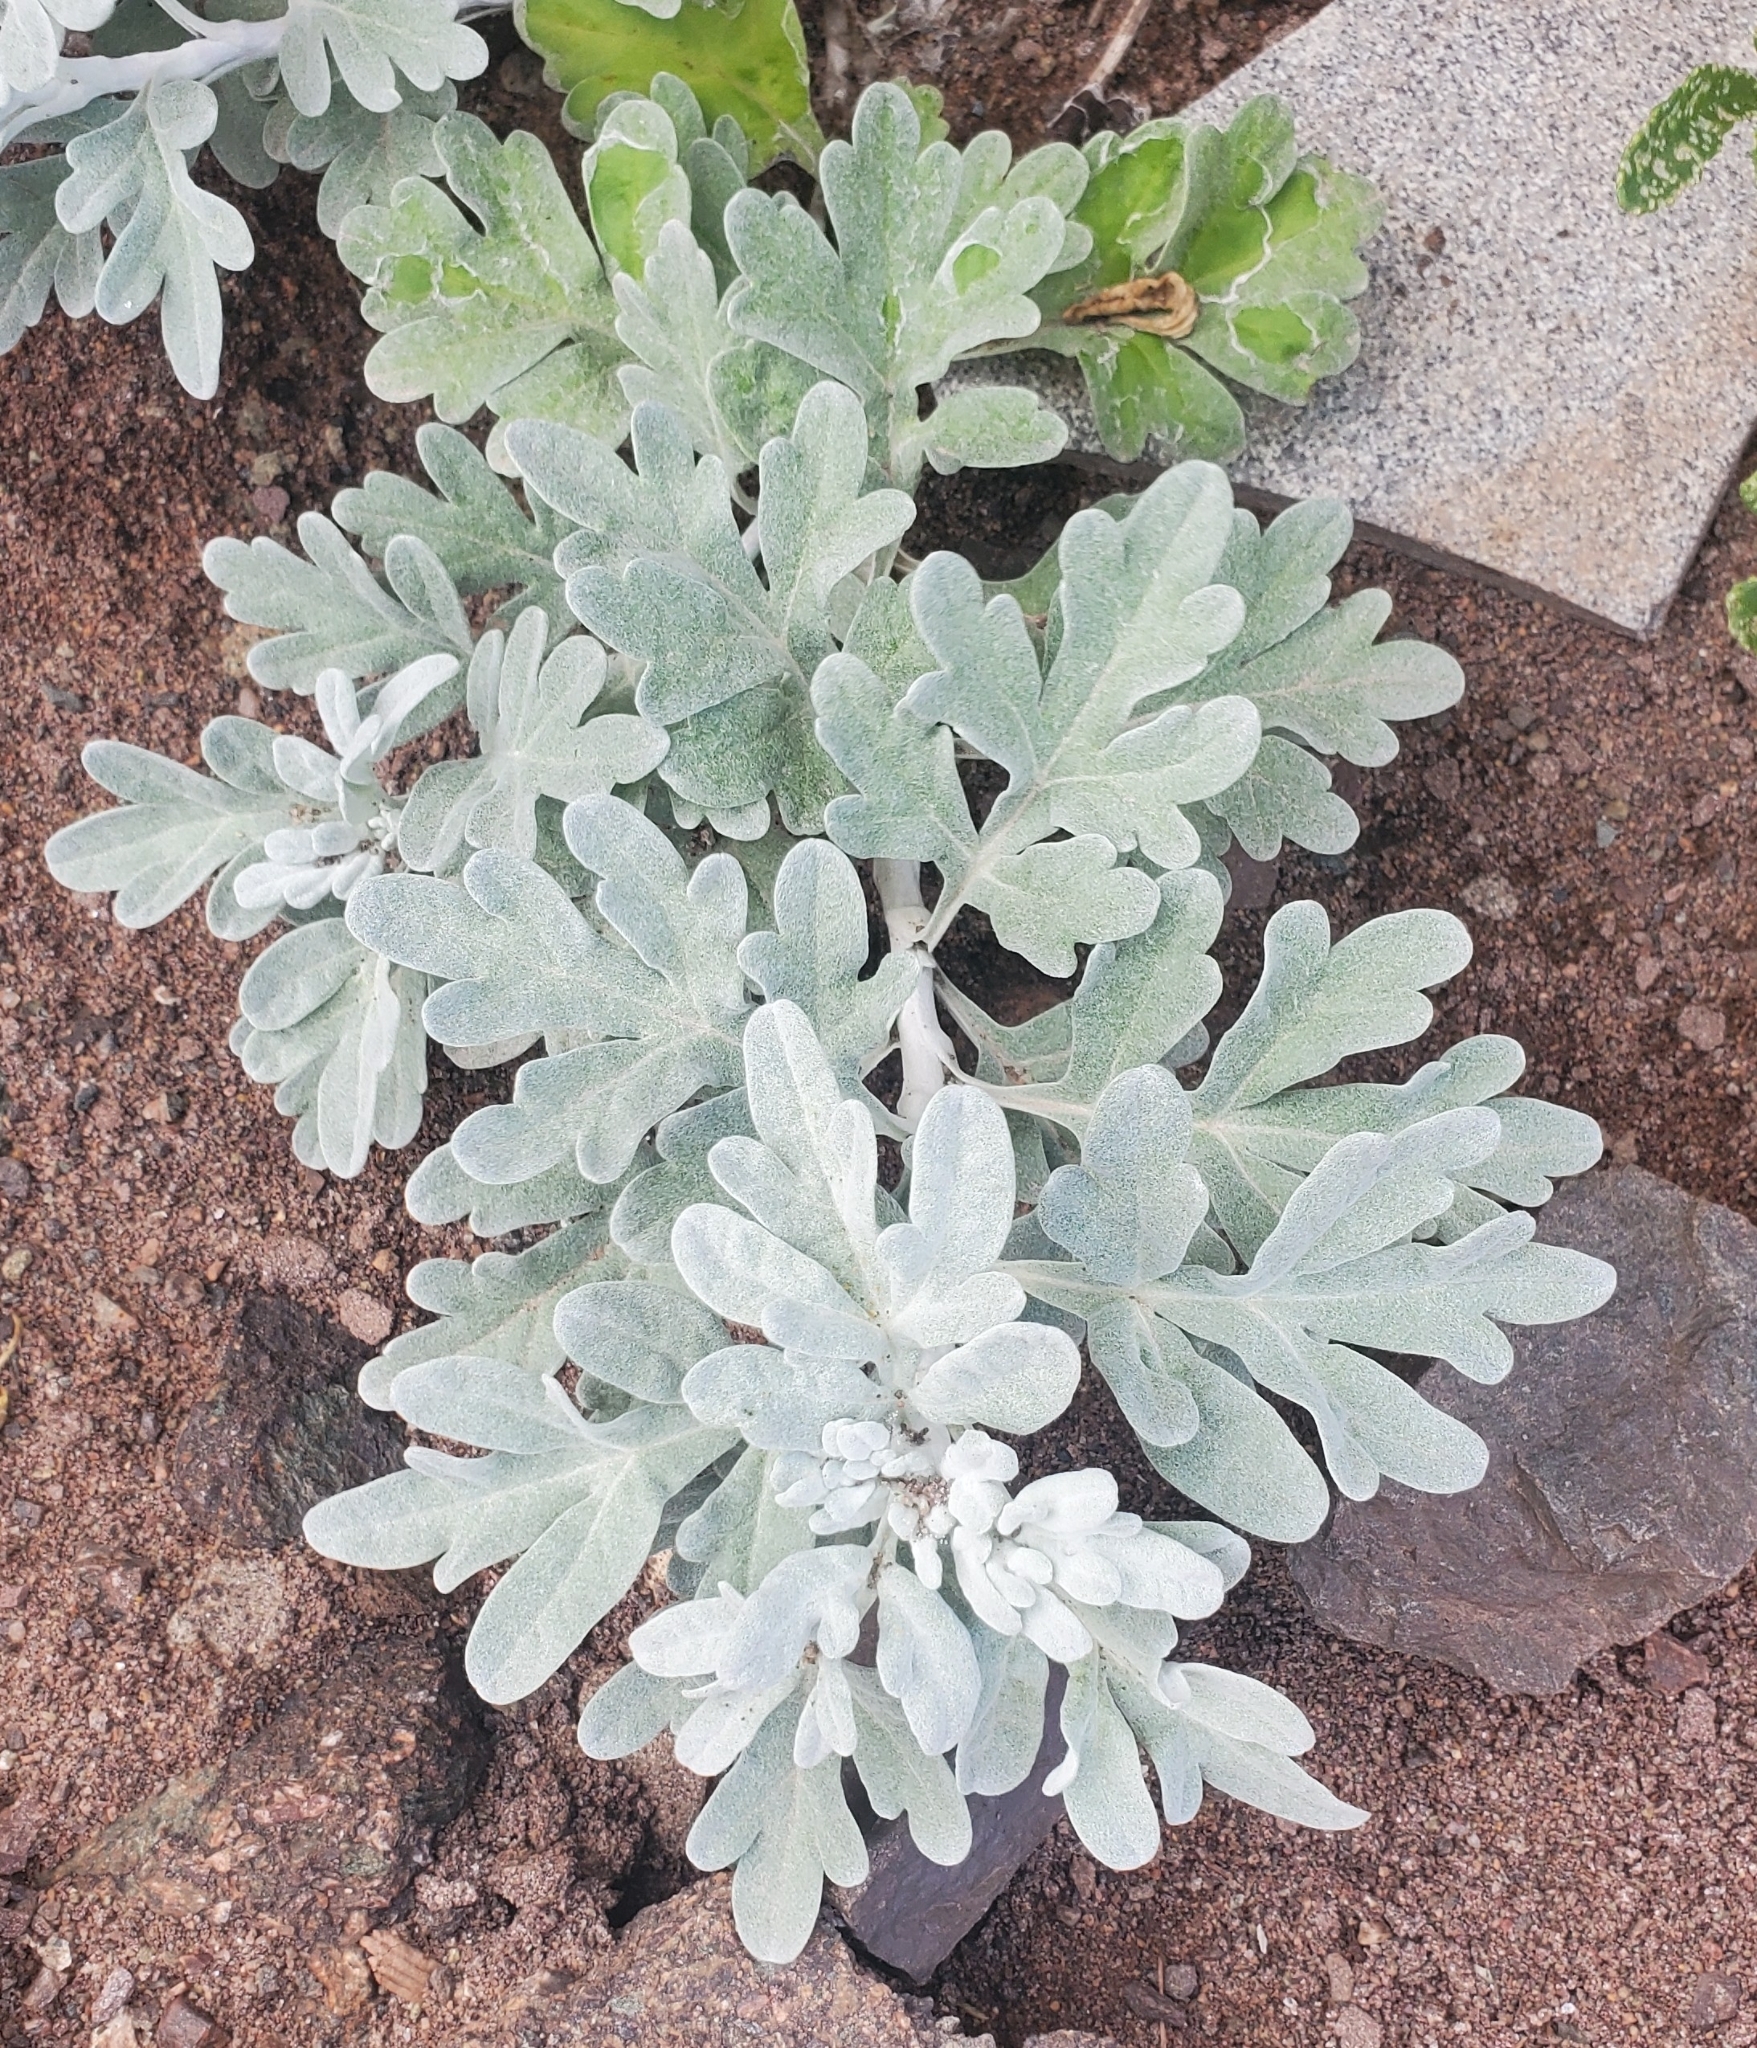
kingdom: Plantae
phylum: Tracheophyta
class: Magnoliopsida
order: Asterales
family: Asteraceae
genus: Artemisia
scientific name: Artemisia stelleriana
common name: Beach wormwood
